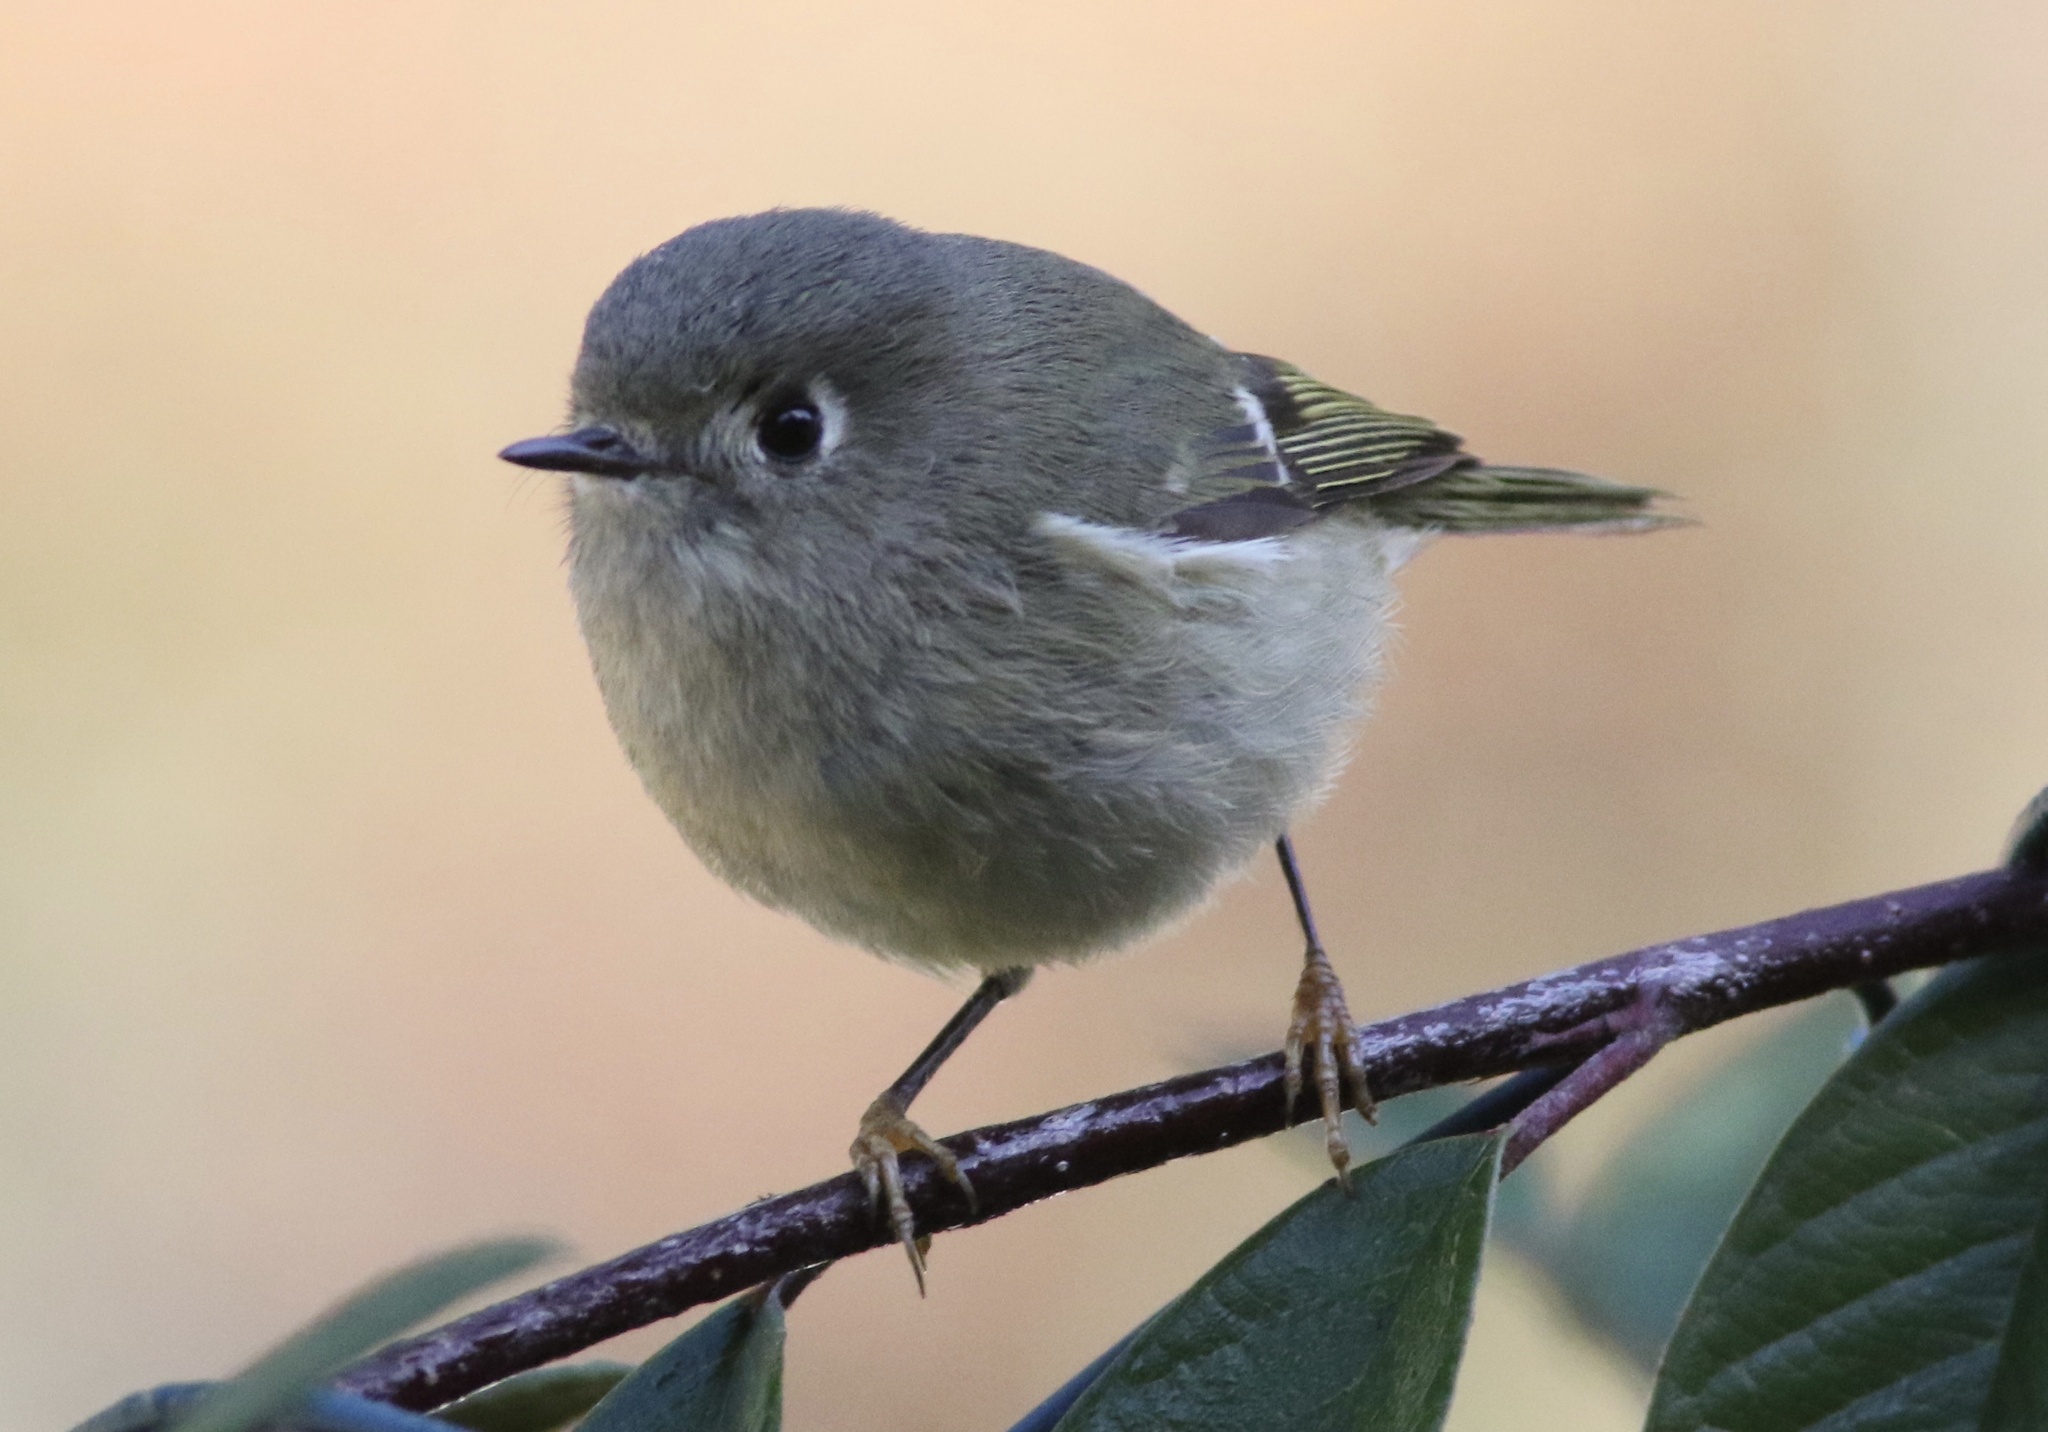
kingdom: Animalia
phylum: Chordata
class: Aves
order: Passeriformes
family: Regulidae
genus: Regulus
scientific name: Regulus calendula
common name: Ruby-crowned kinglet
